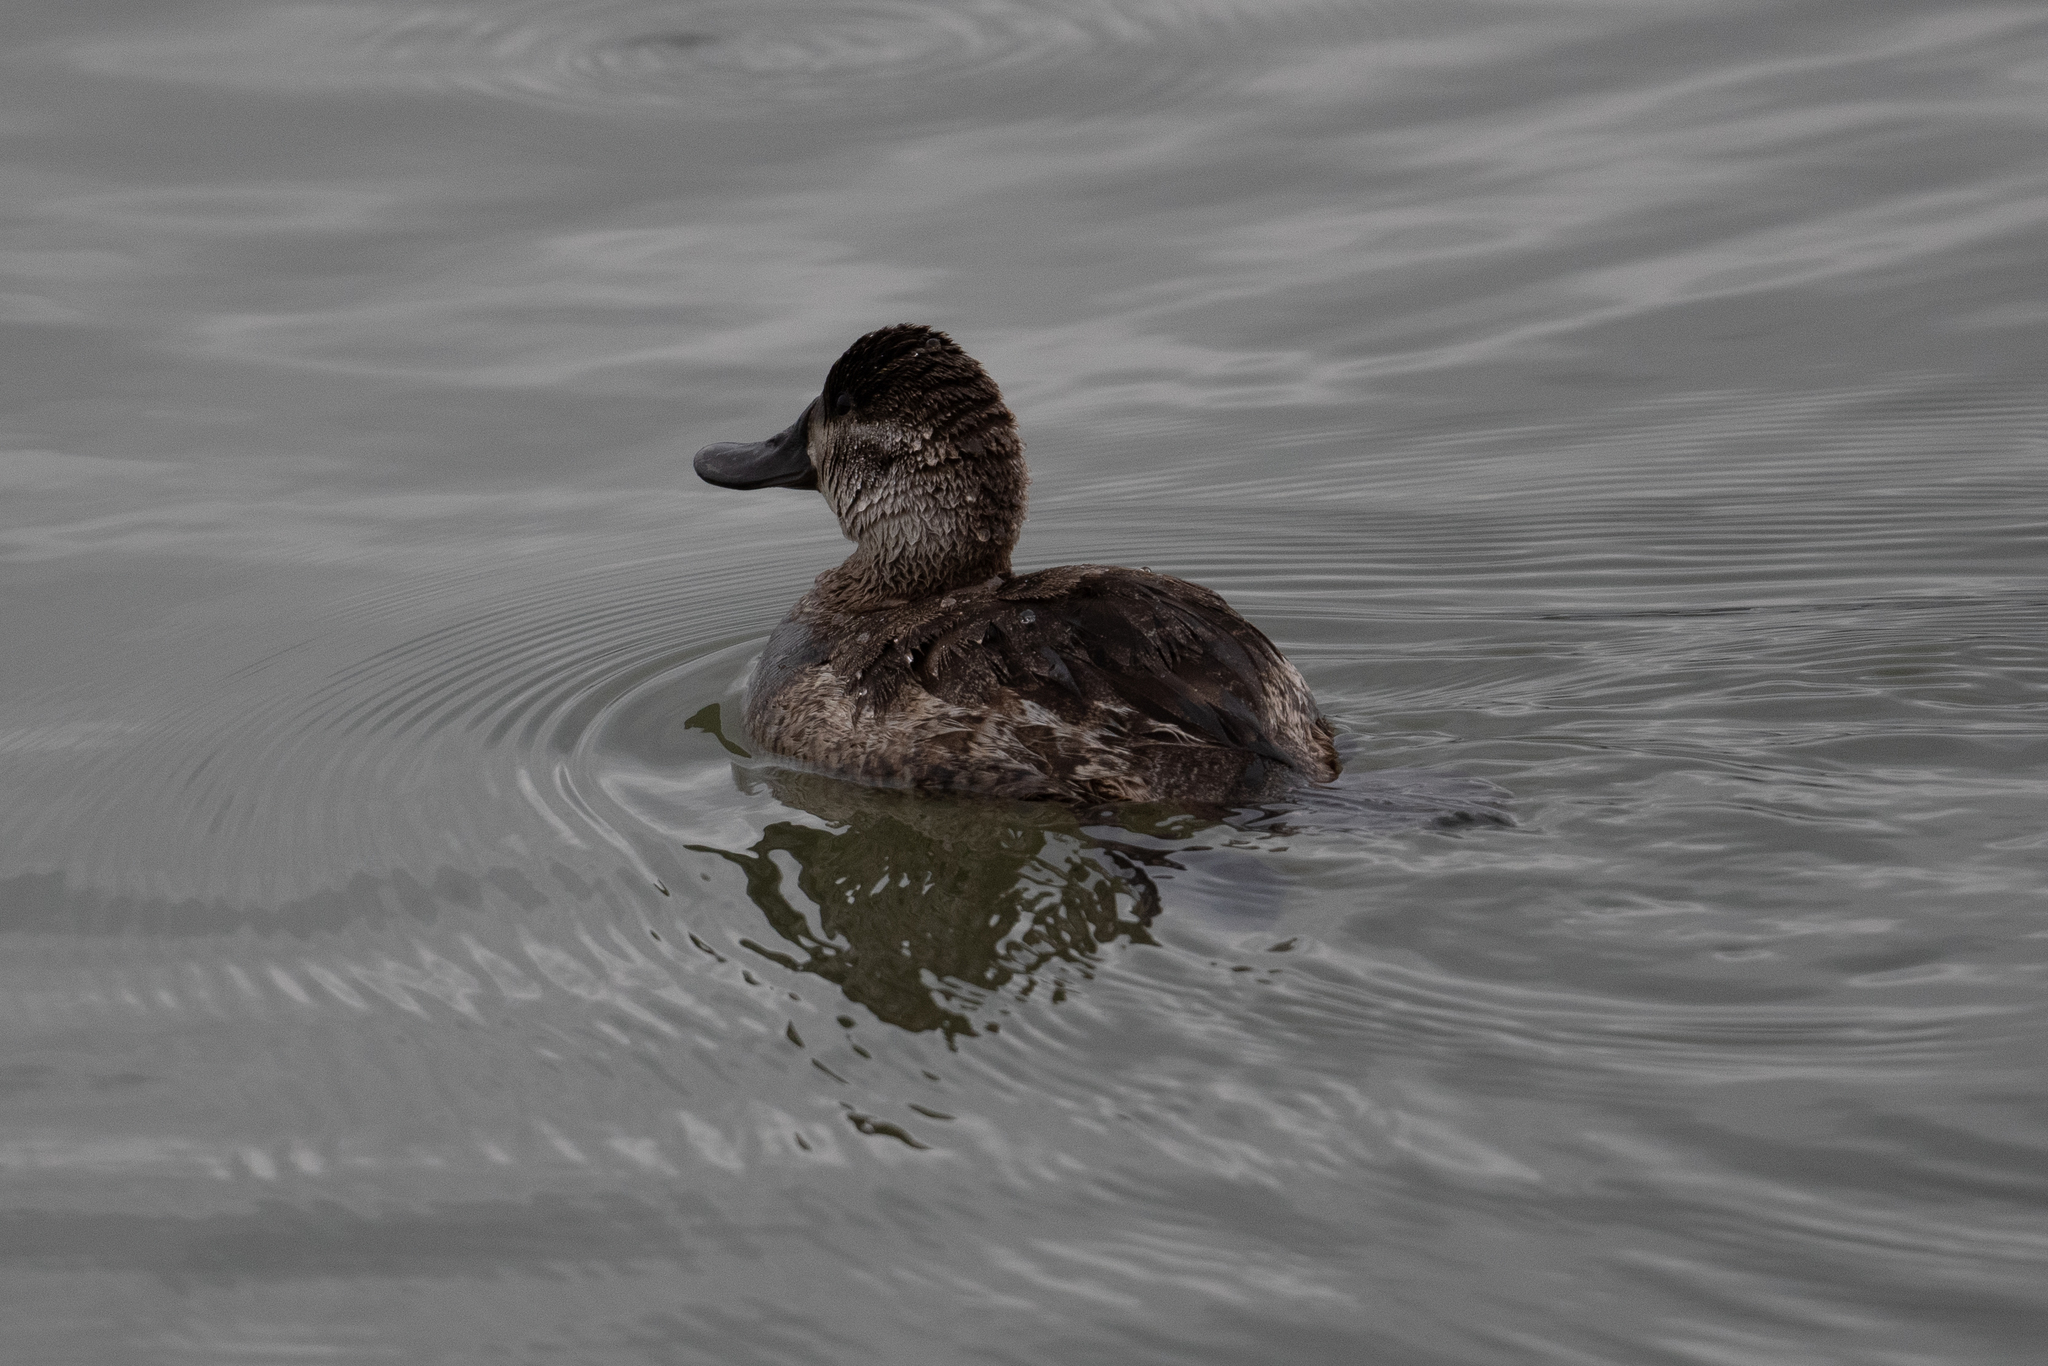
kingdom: Animalia
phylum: Chordata
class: Aves
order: Anseriformes
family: Anatidae
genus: Oxyura
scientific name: Oxyura jamaicensis
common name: Ruddy duck
